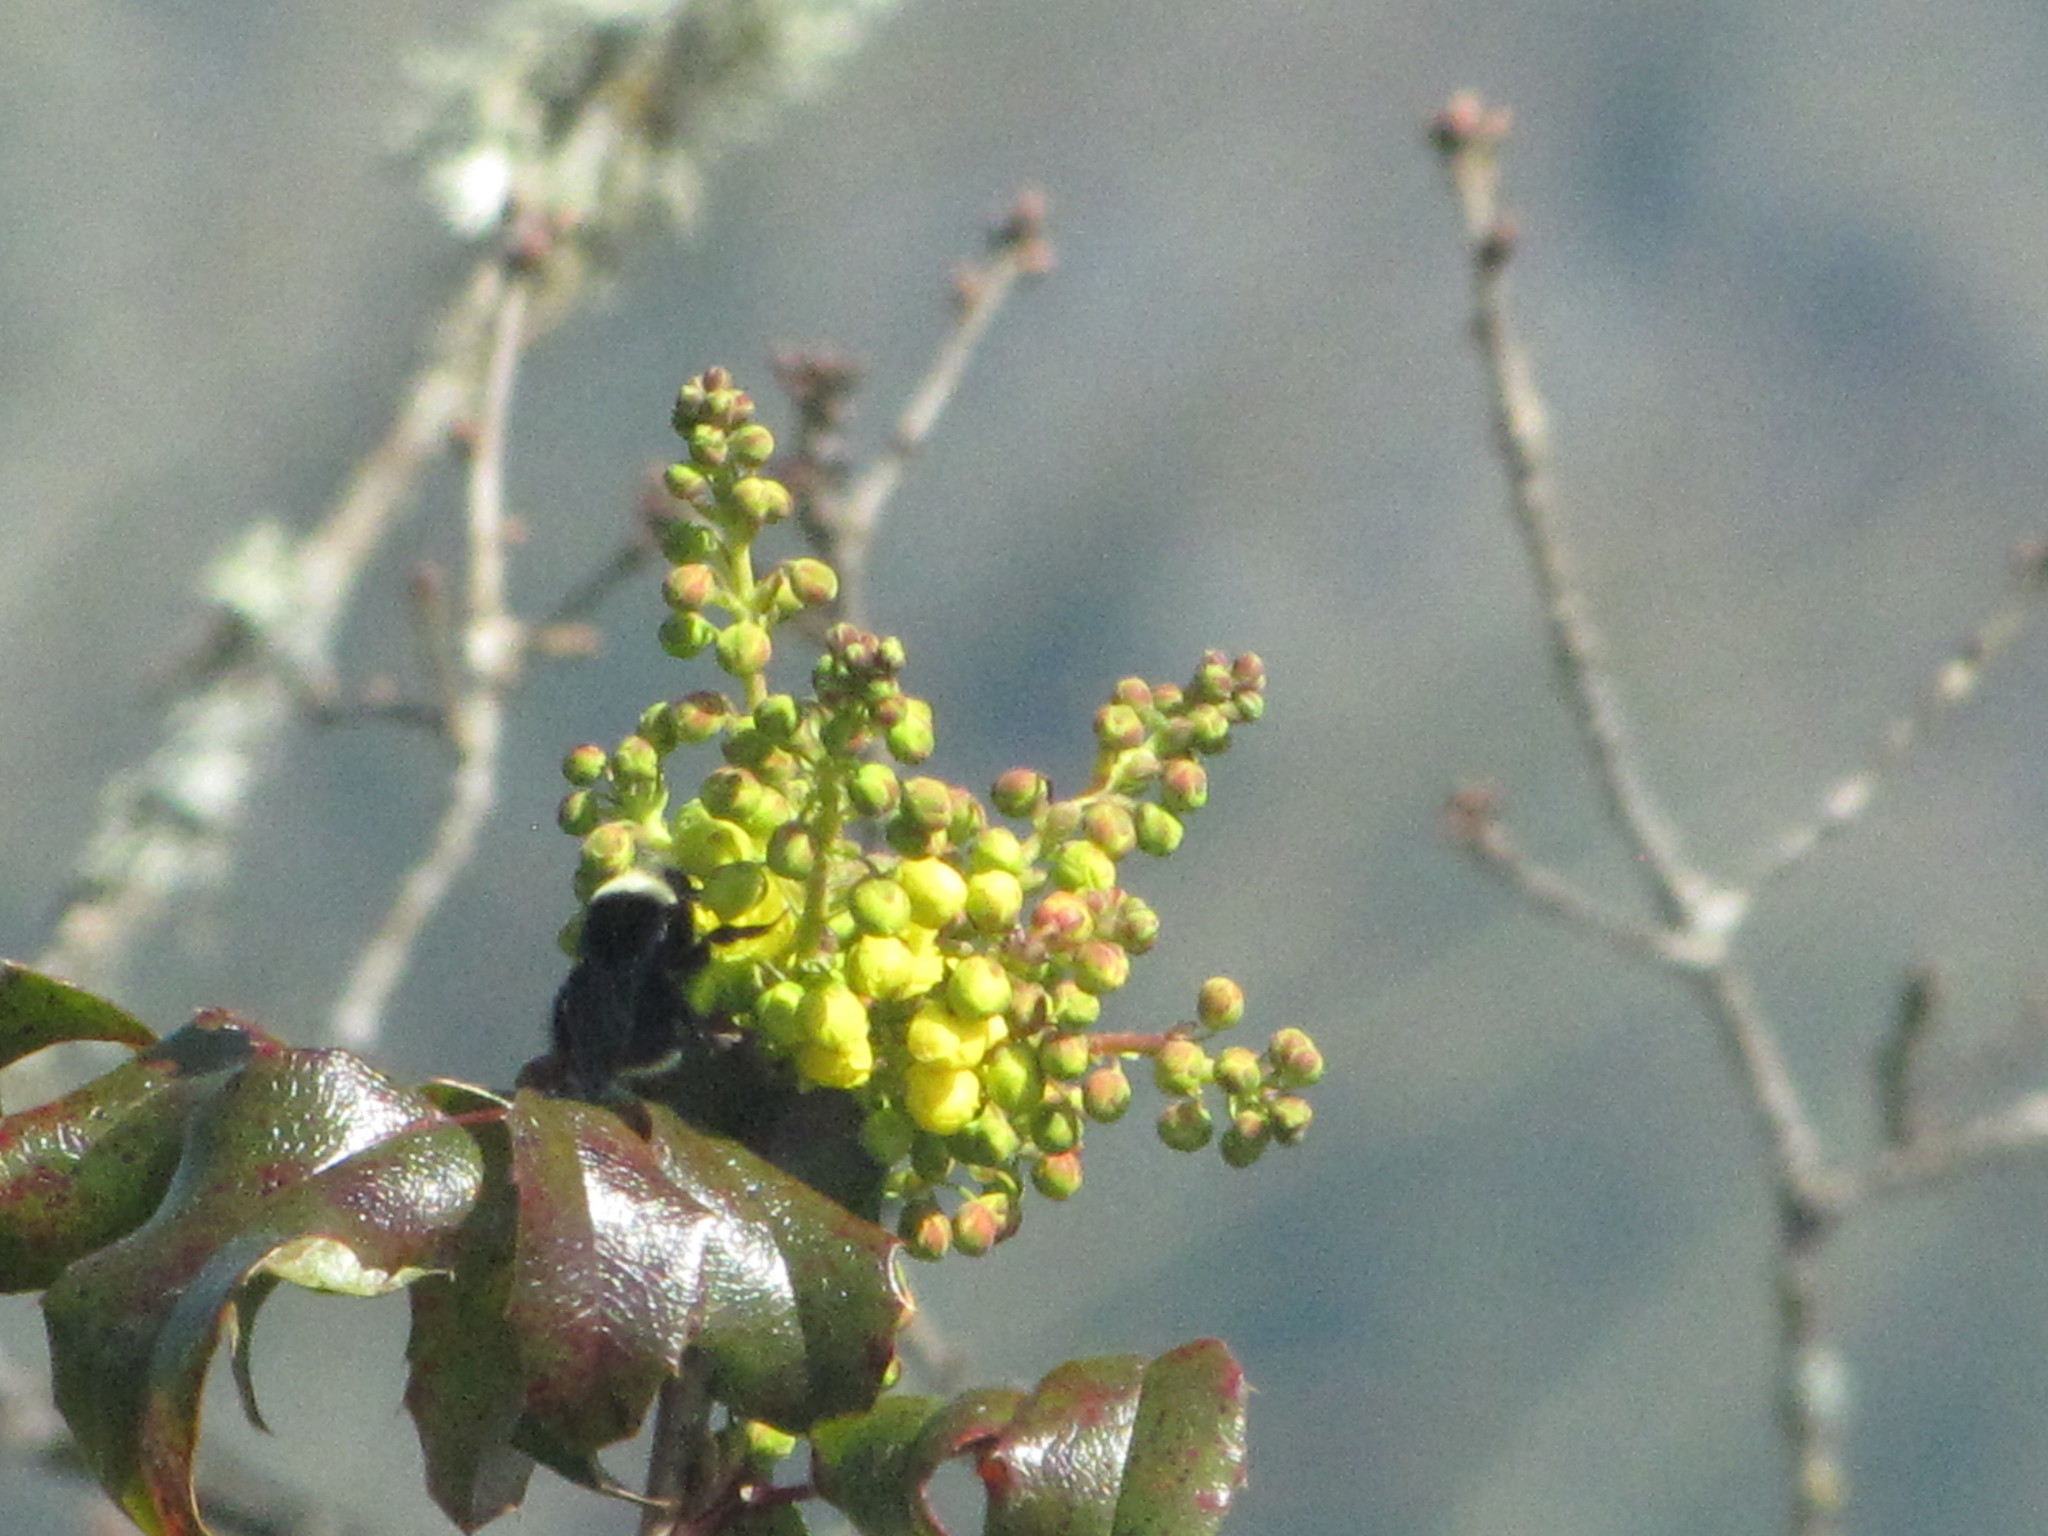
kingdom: Plantae
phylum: Tracheophyta
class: Magnoliopsida
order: Ranunculales
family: Berberidaceae
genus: Mahonia
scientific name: Mahonia aquifolium
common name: Oregon-grape
